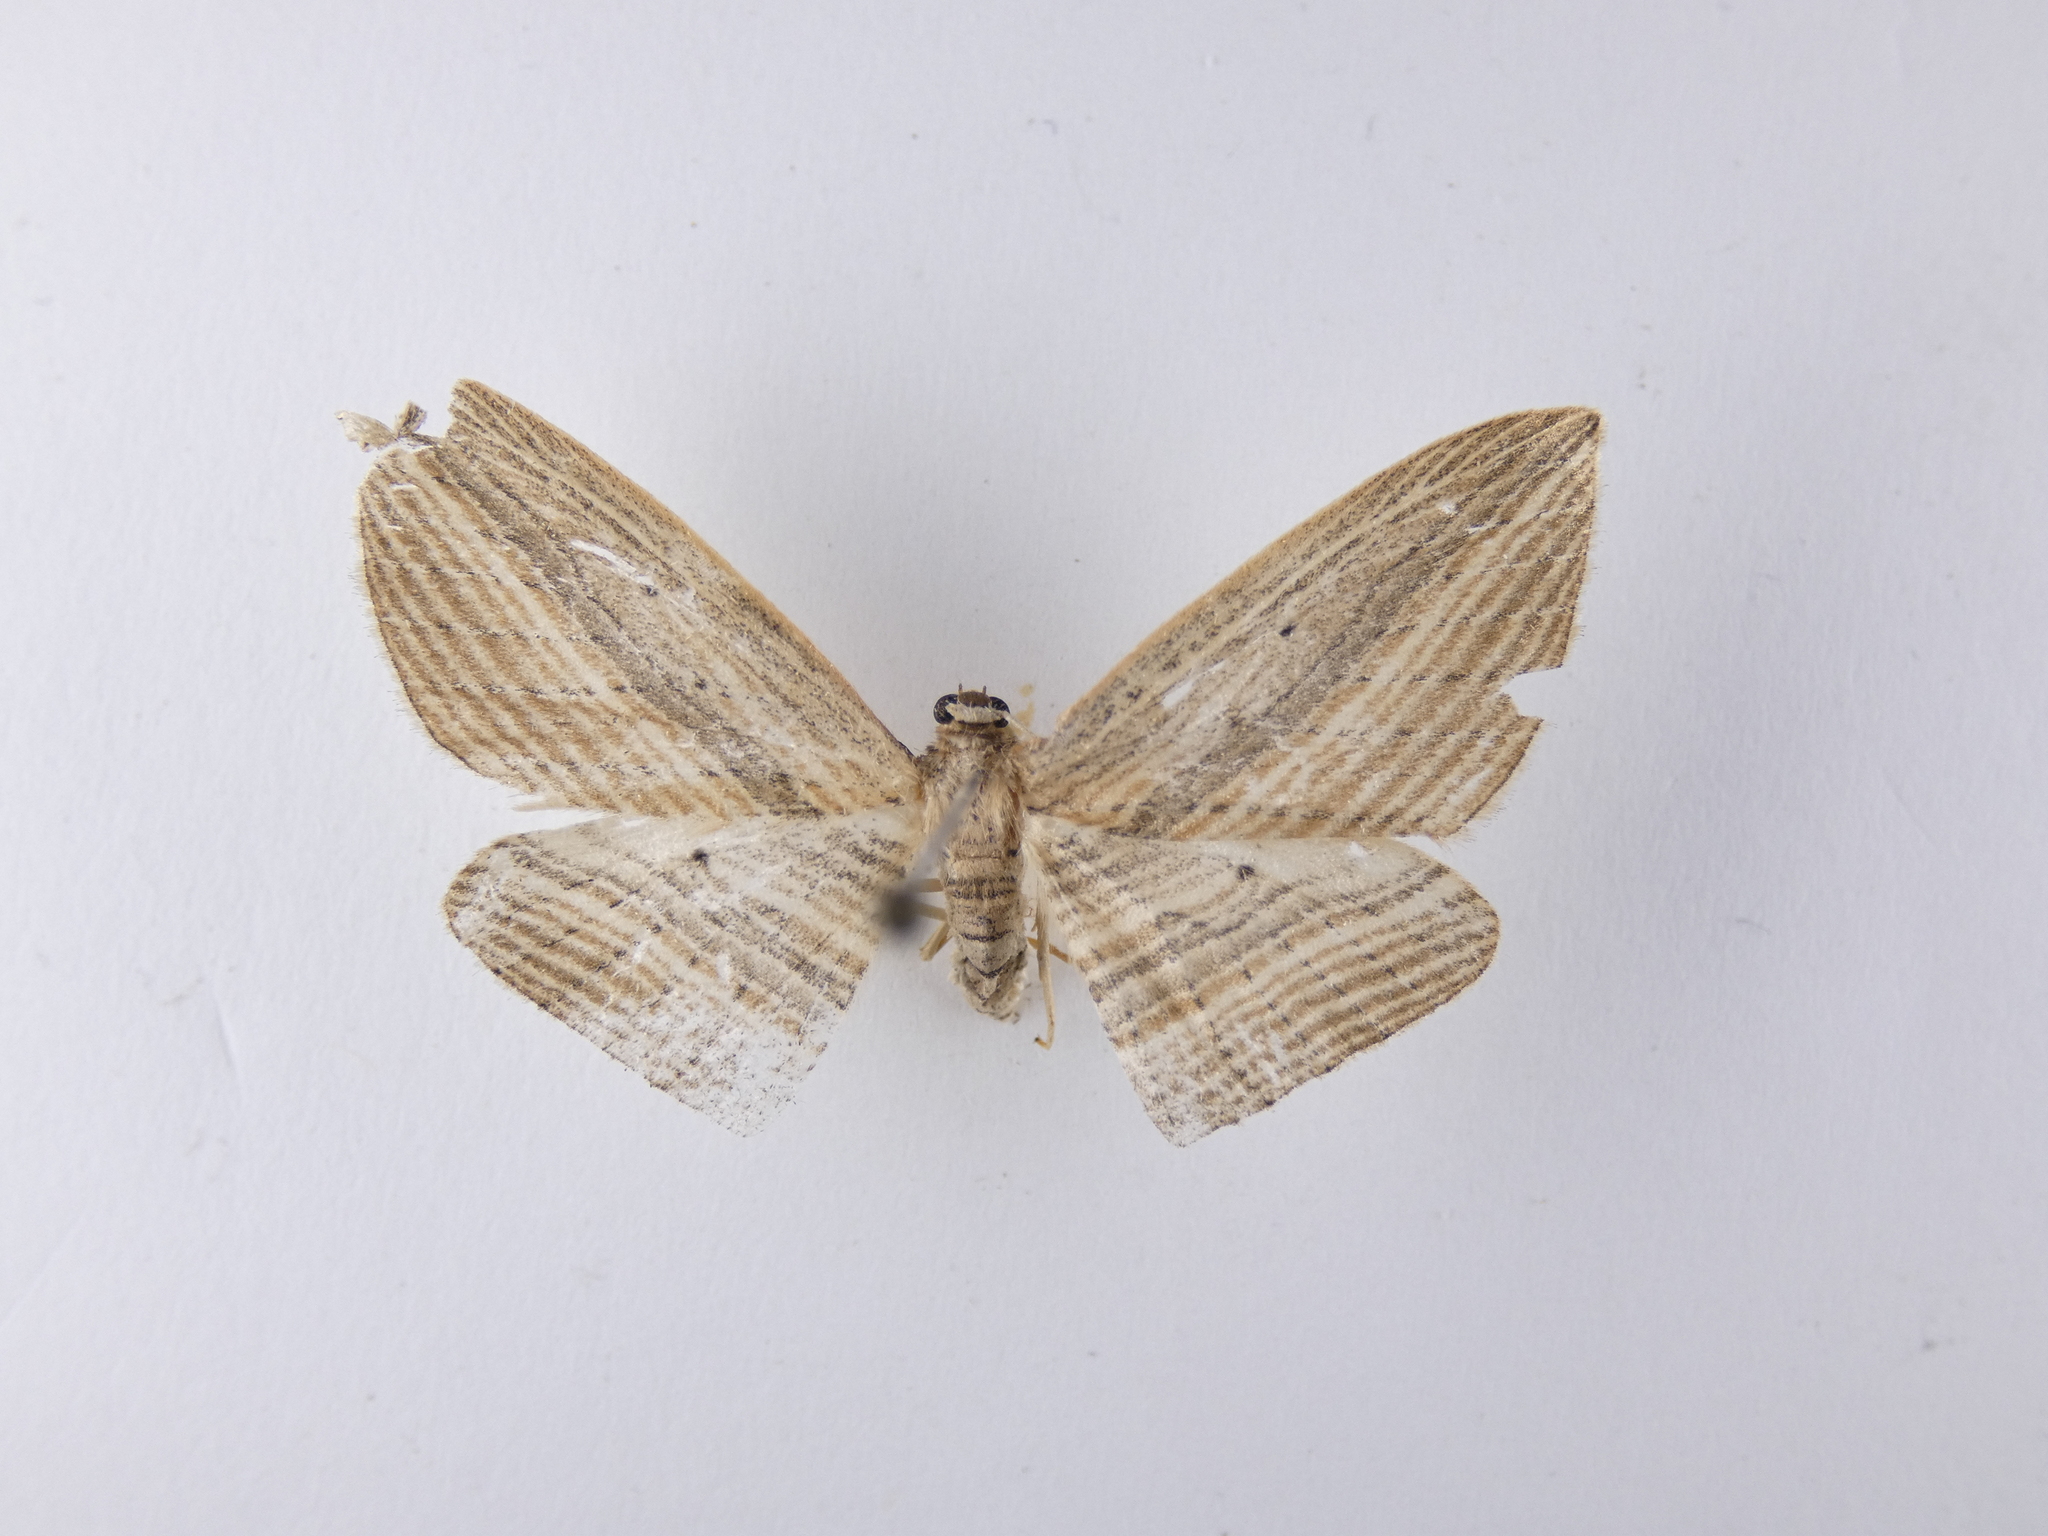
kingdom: Animalia
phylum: Arthropoda
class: Insecta
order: Lepidoptera
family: Geometridae
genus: Epiphryne
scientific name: Epiphryne verriculata
